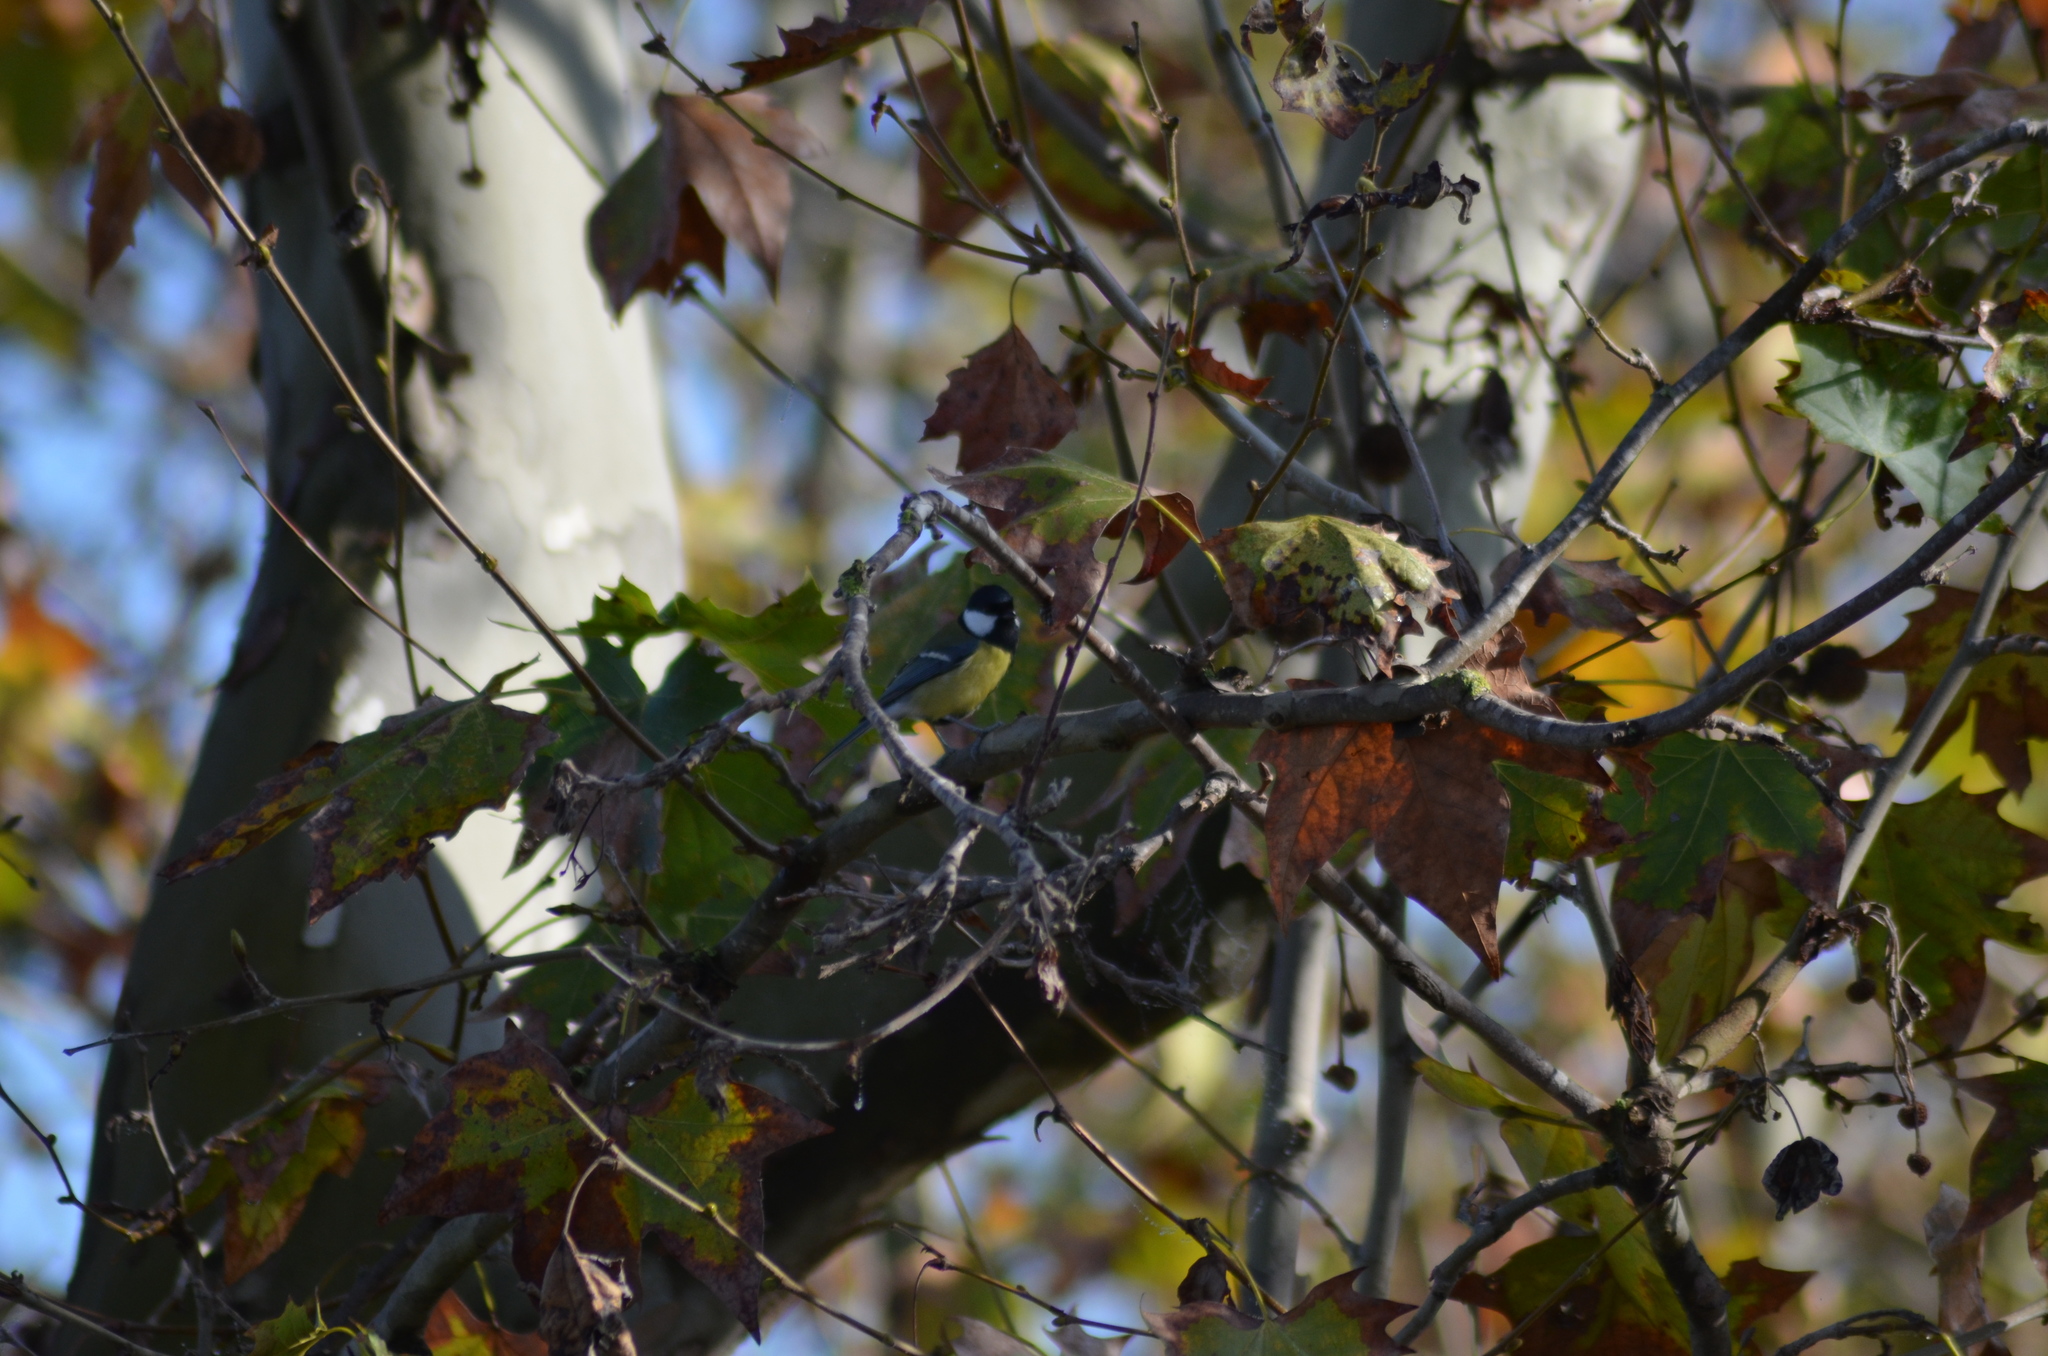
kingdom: Animalia
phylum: Chordata
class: Aves
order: Passeriformes
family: Paridae
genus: Parus
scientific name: Parus major
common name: Great tit
